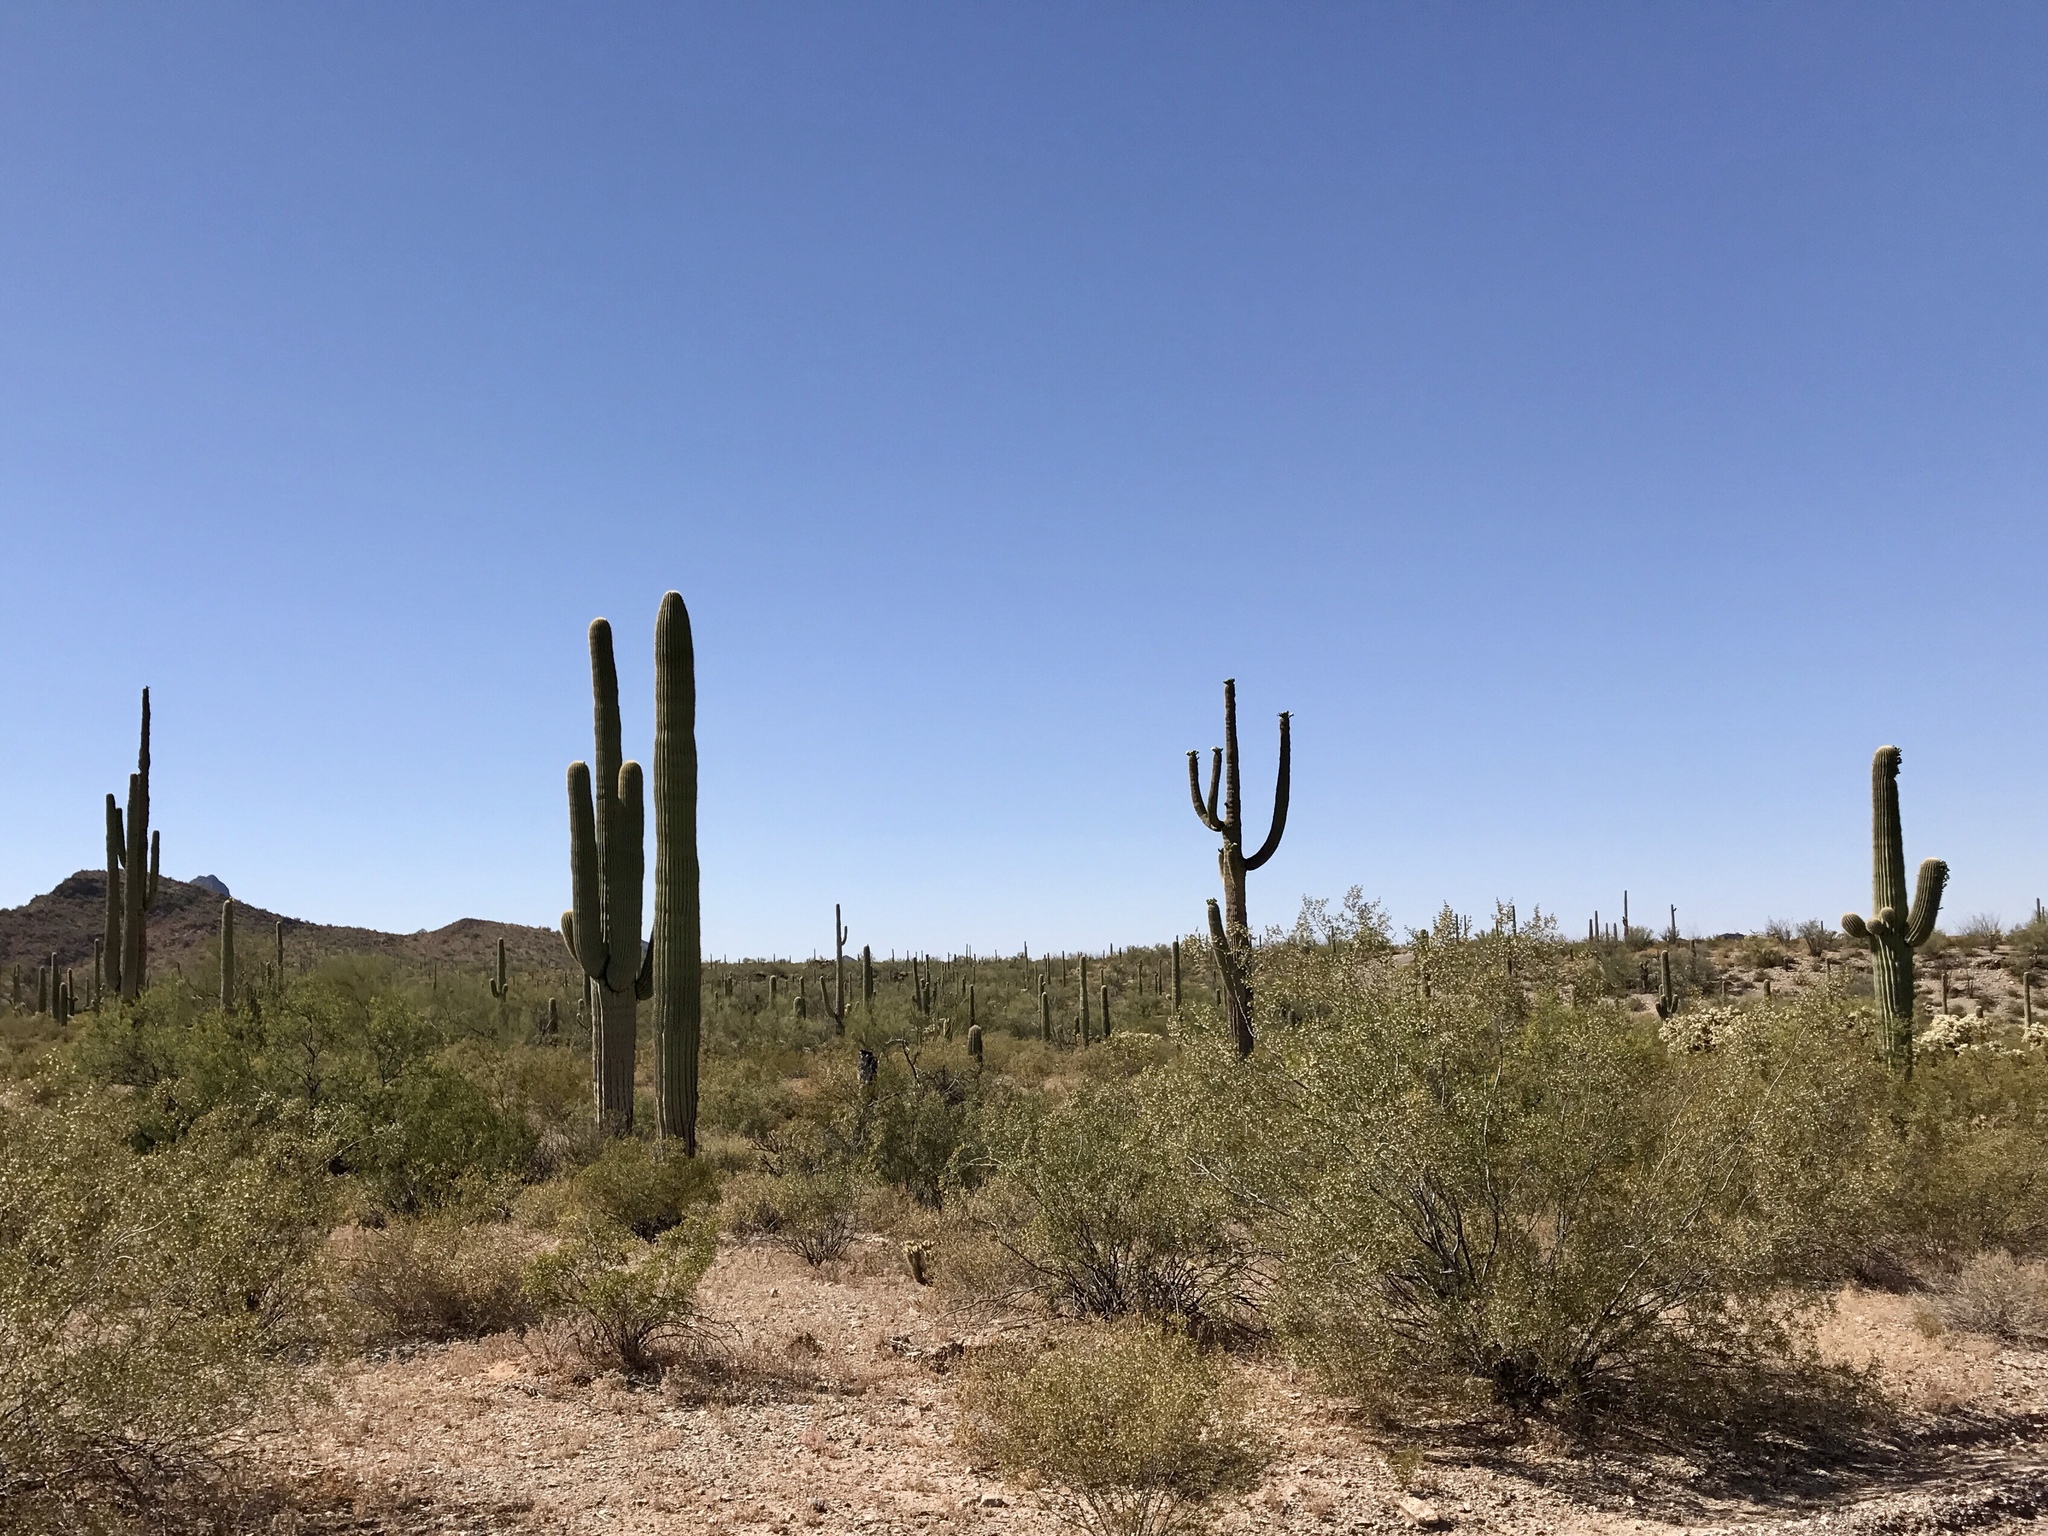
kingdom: Plantae
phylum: Tracheophyta
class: Magnoliopsida
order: Caryophyllales
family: Cactaceae
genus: Carnegiea
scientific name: Carnegiea gigantea
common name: Saguaro
